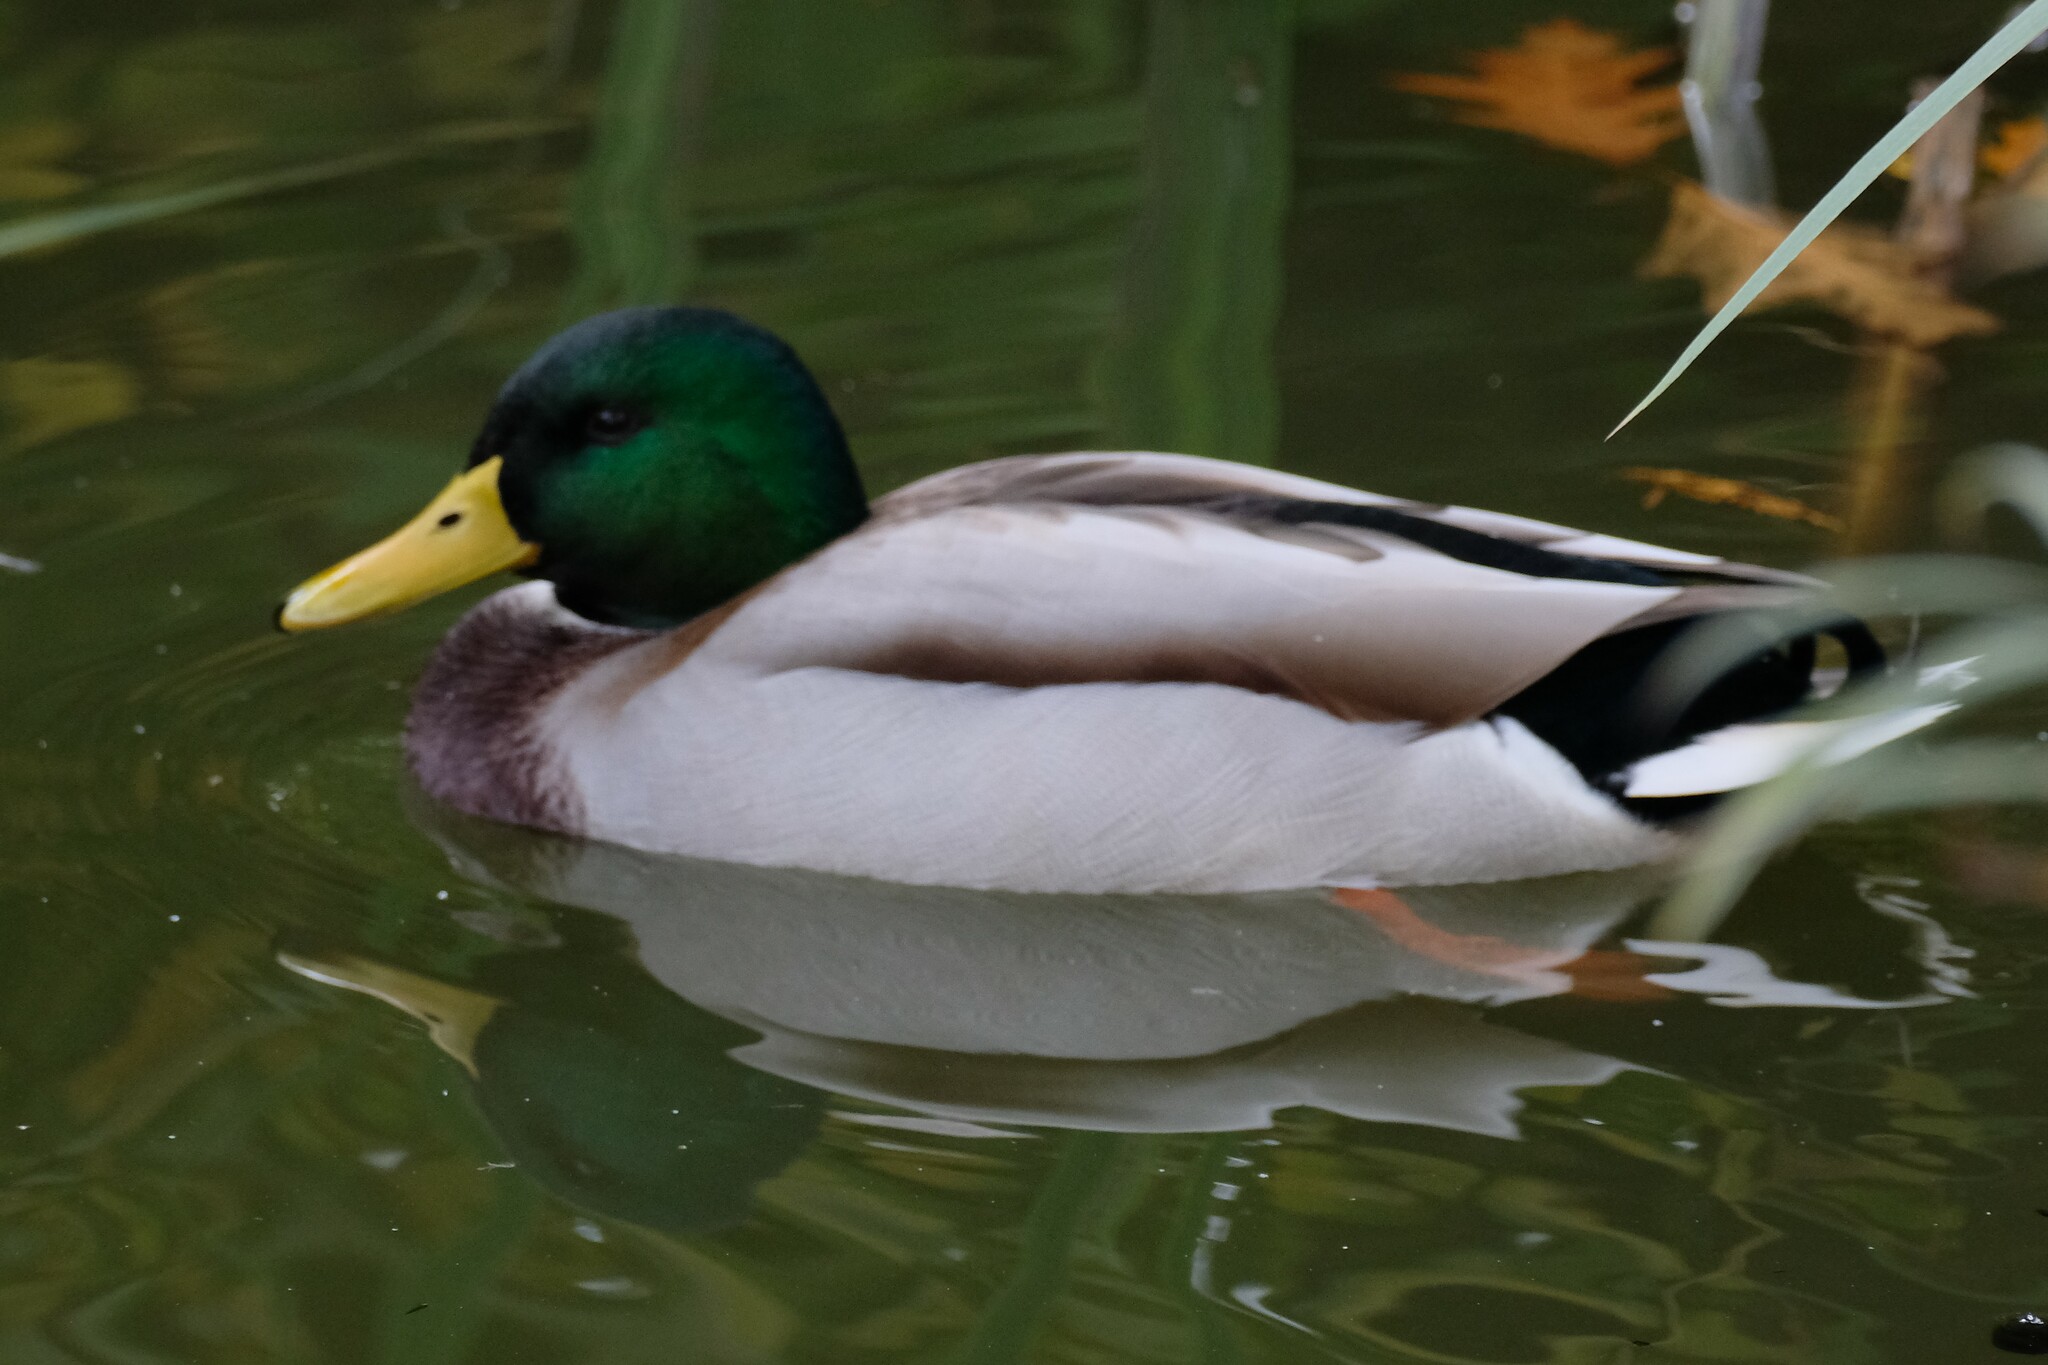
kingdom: Animalia
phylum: Chordata
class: Aves
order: Anseriformes
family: Anatidae
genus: Anas
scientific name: Anas platyrhynchos
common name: Mallard
